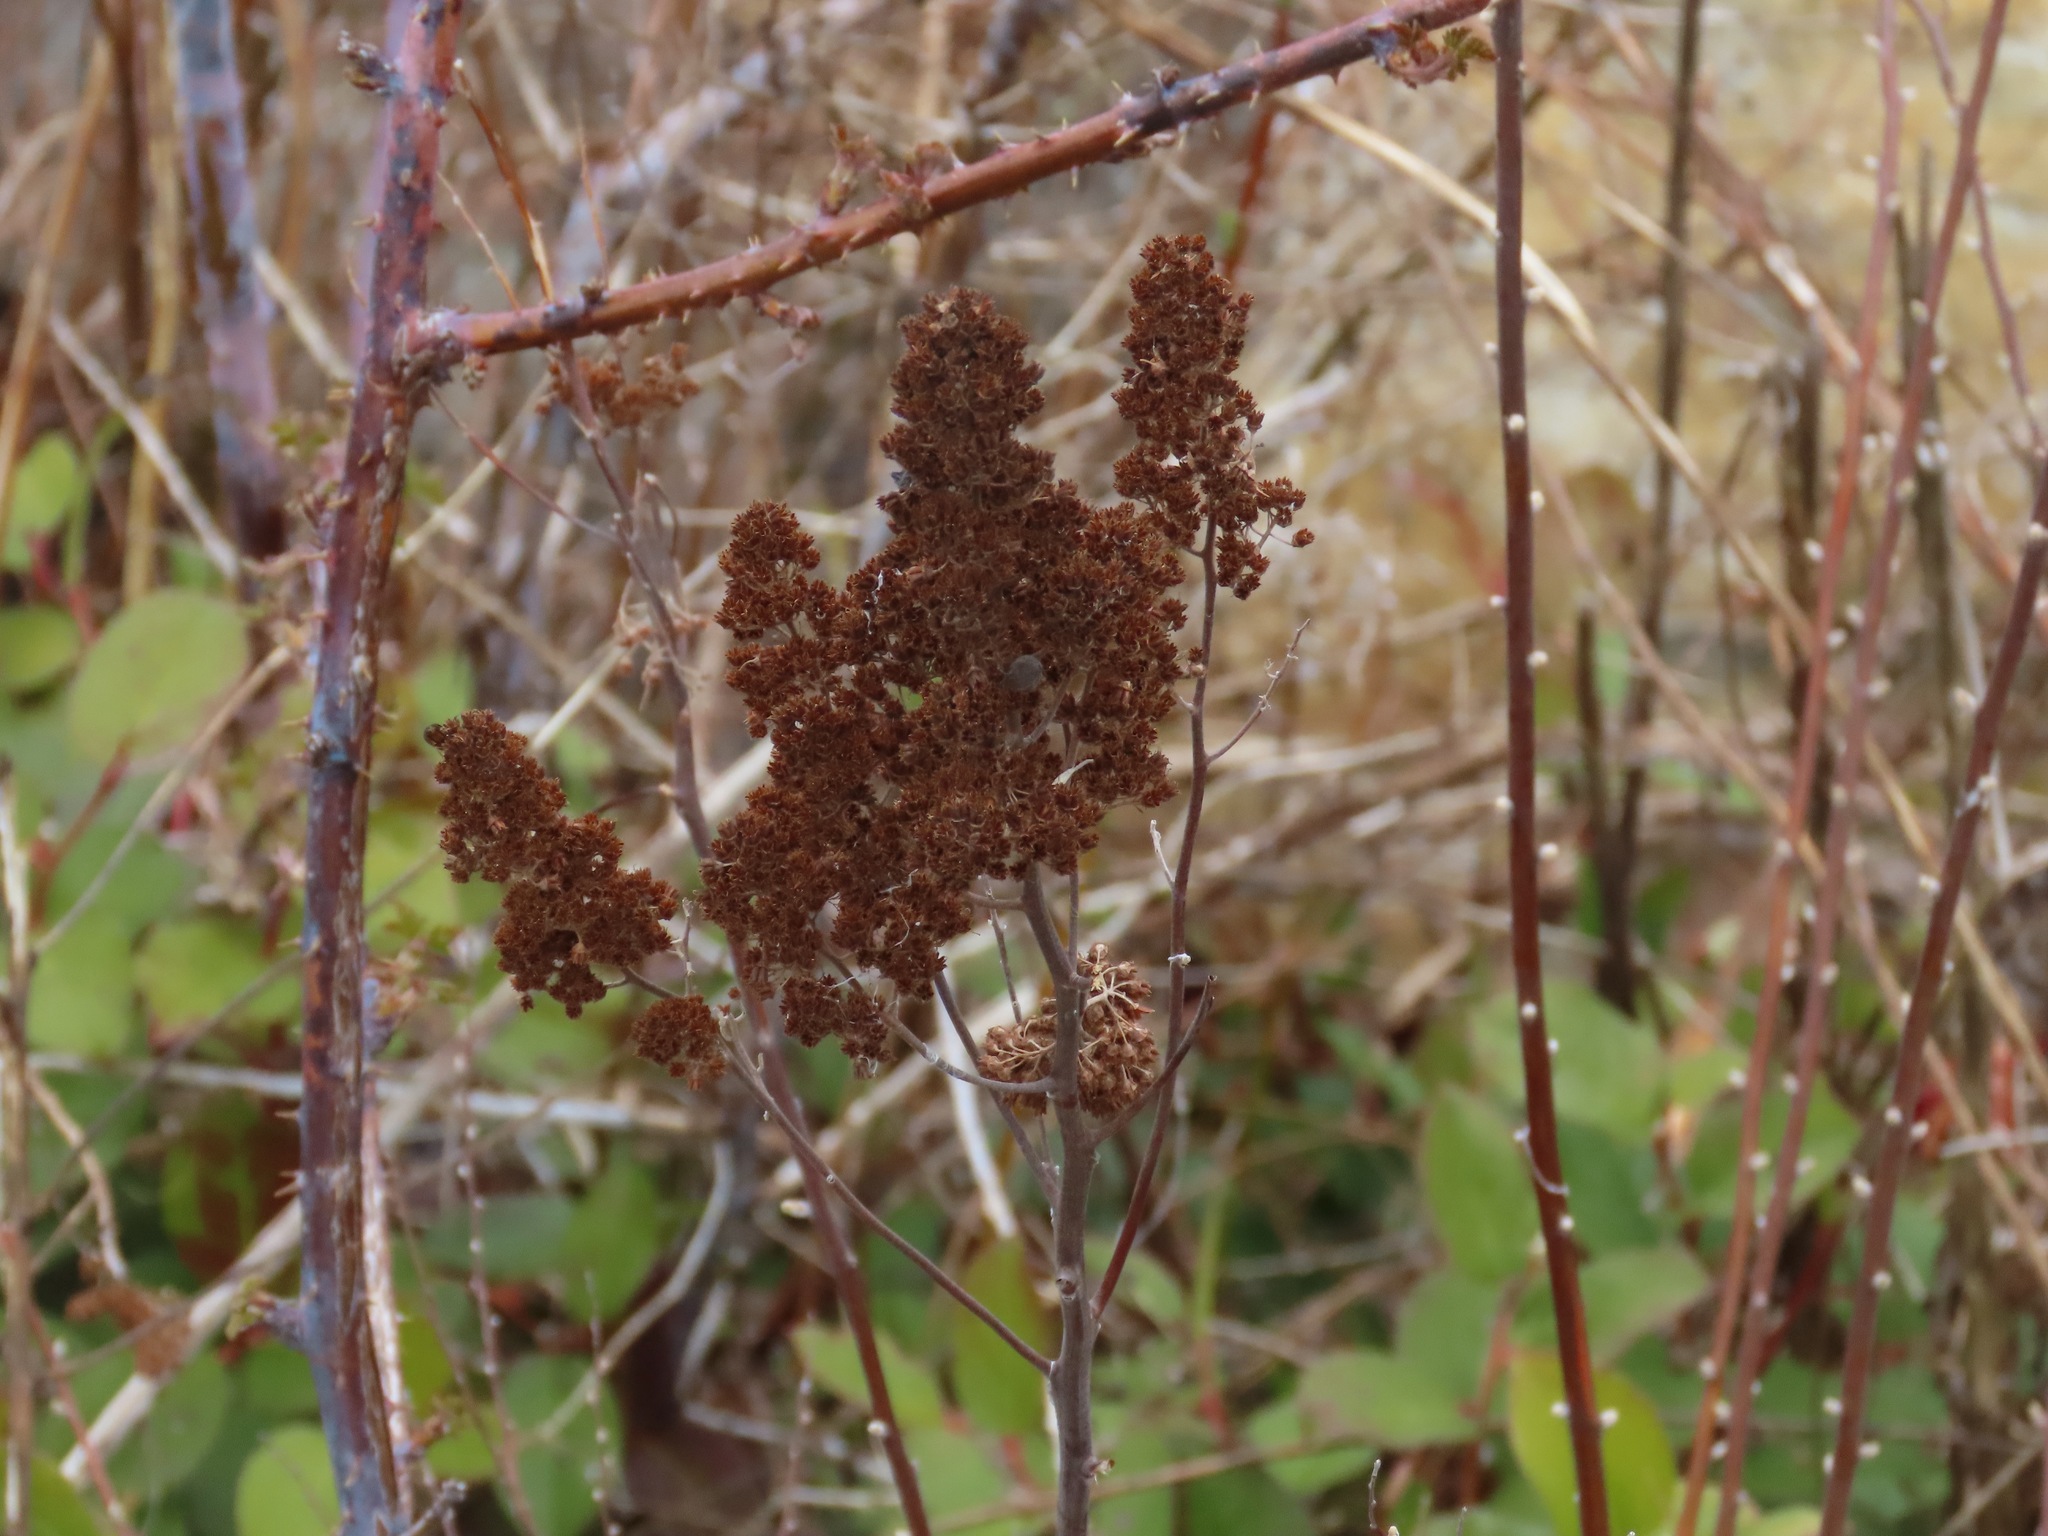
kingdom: Plantae
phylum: Tracheophyta
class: Magnoliopsida
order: Rosales
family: Rosaceae
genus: Spiraea
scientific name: Spiraea douglasii
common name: Steeplebush
